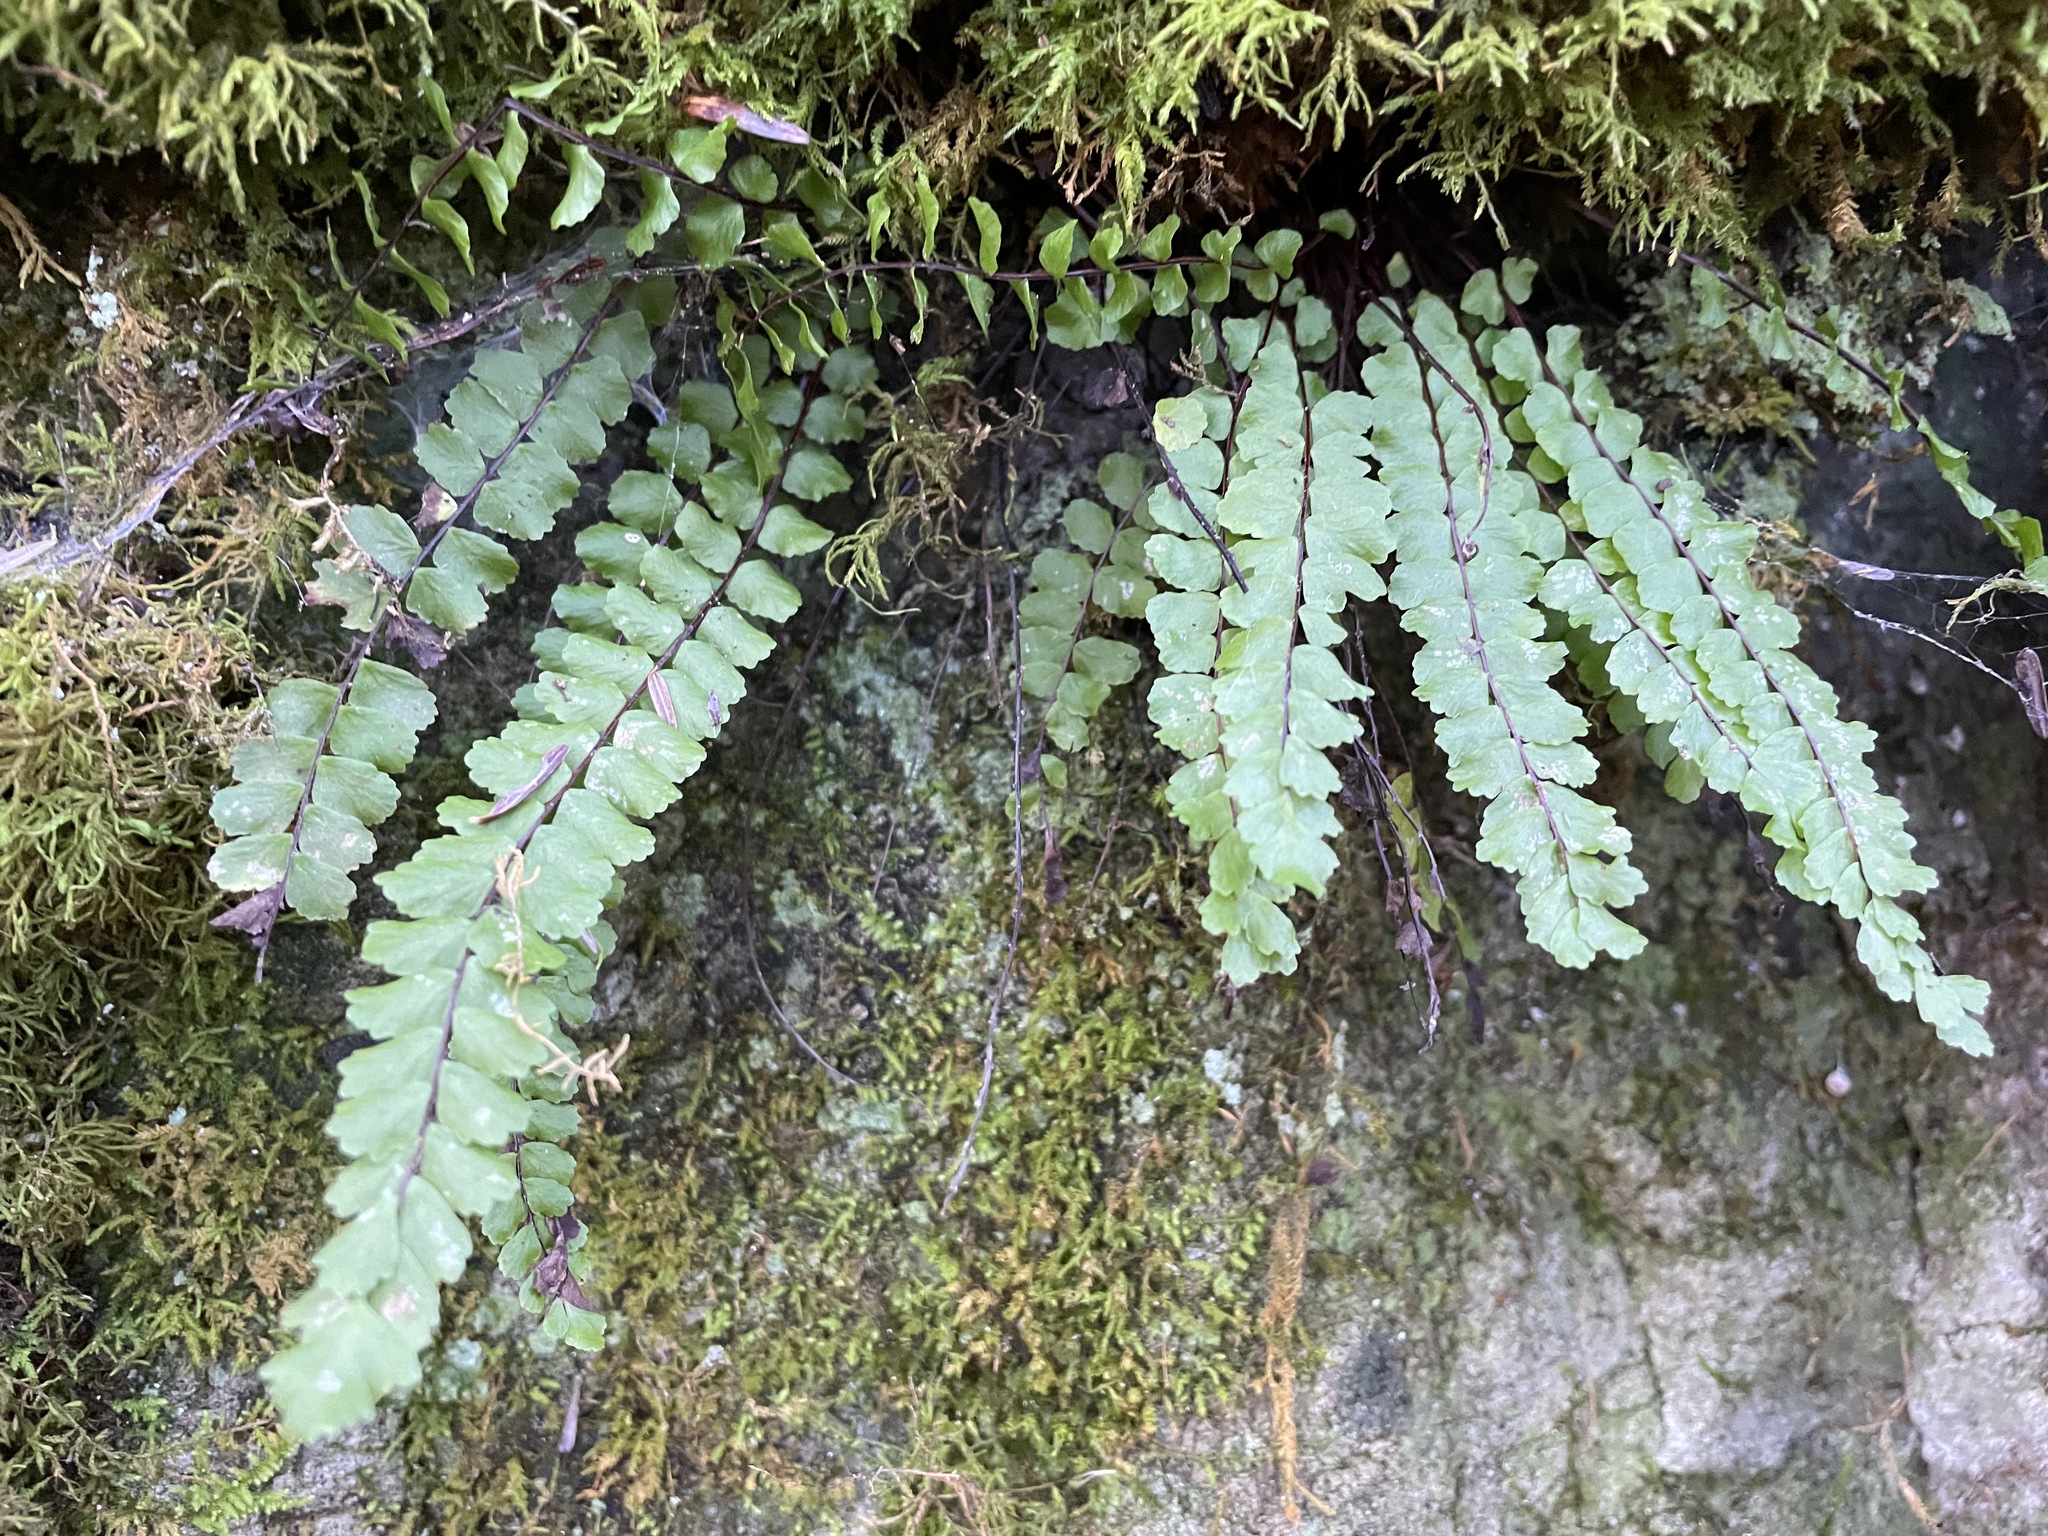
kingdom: Plantae
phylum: Tracheophyta
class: Polypodiopsida
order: Polypodiales
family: Aspleniaceae
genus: Asplenium
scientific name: Asplenium trichomanes
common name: Maidenhair spleenwort
